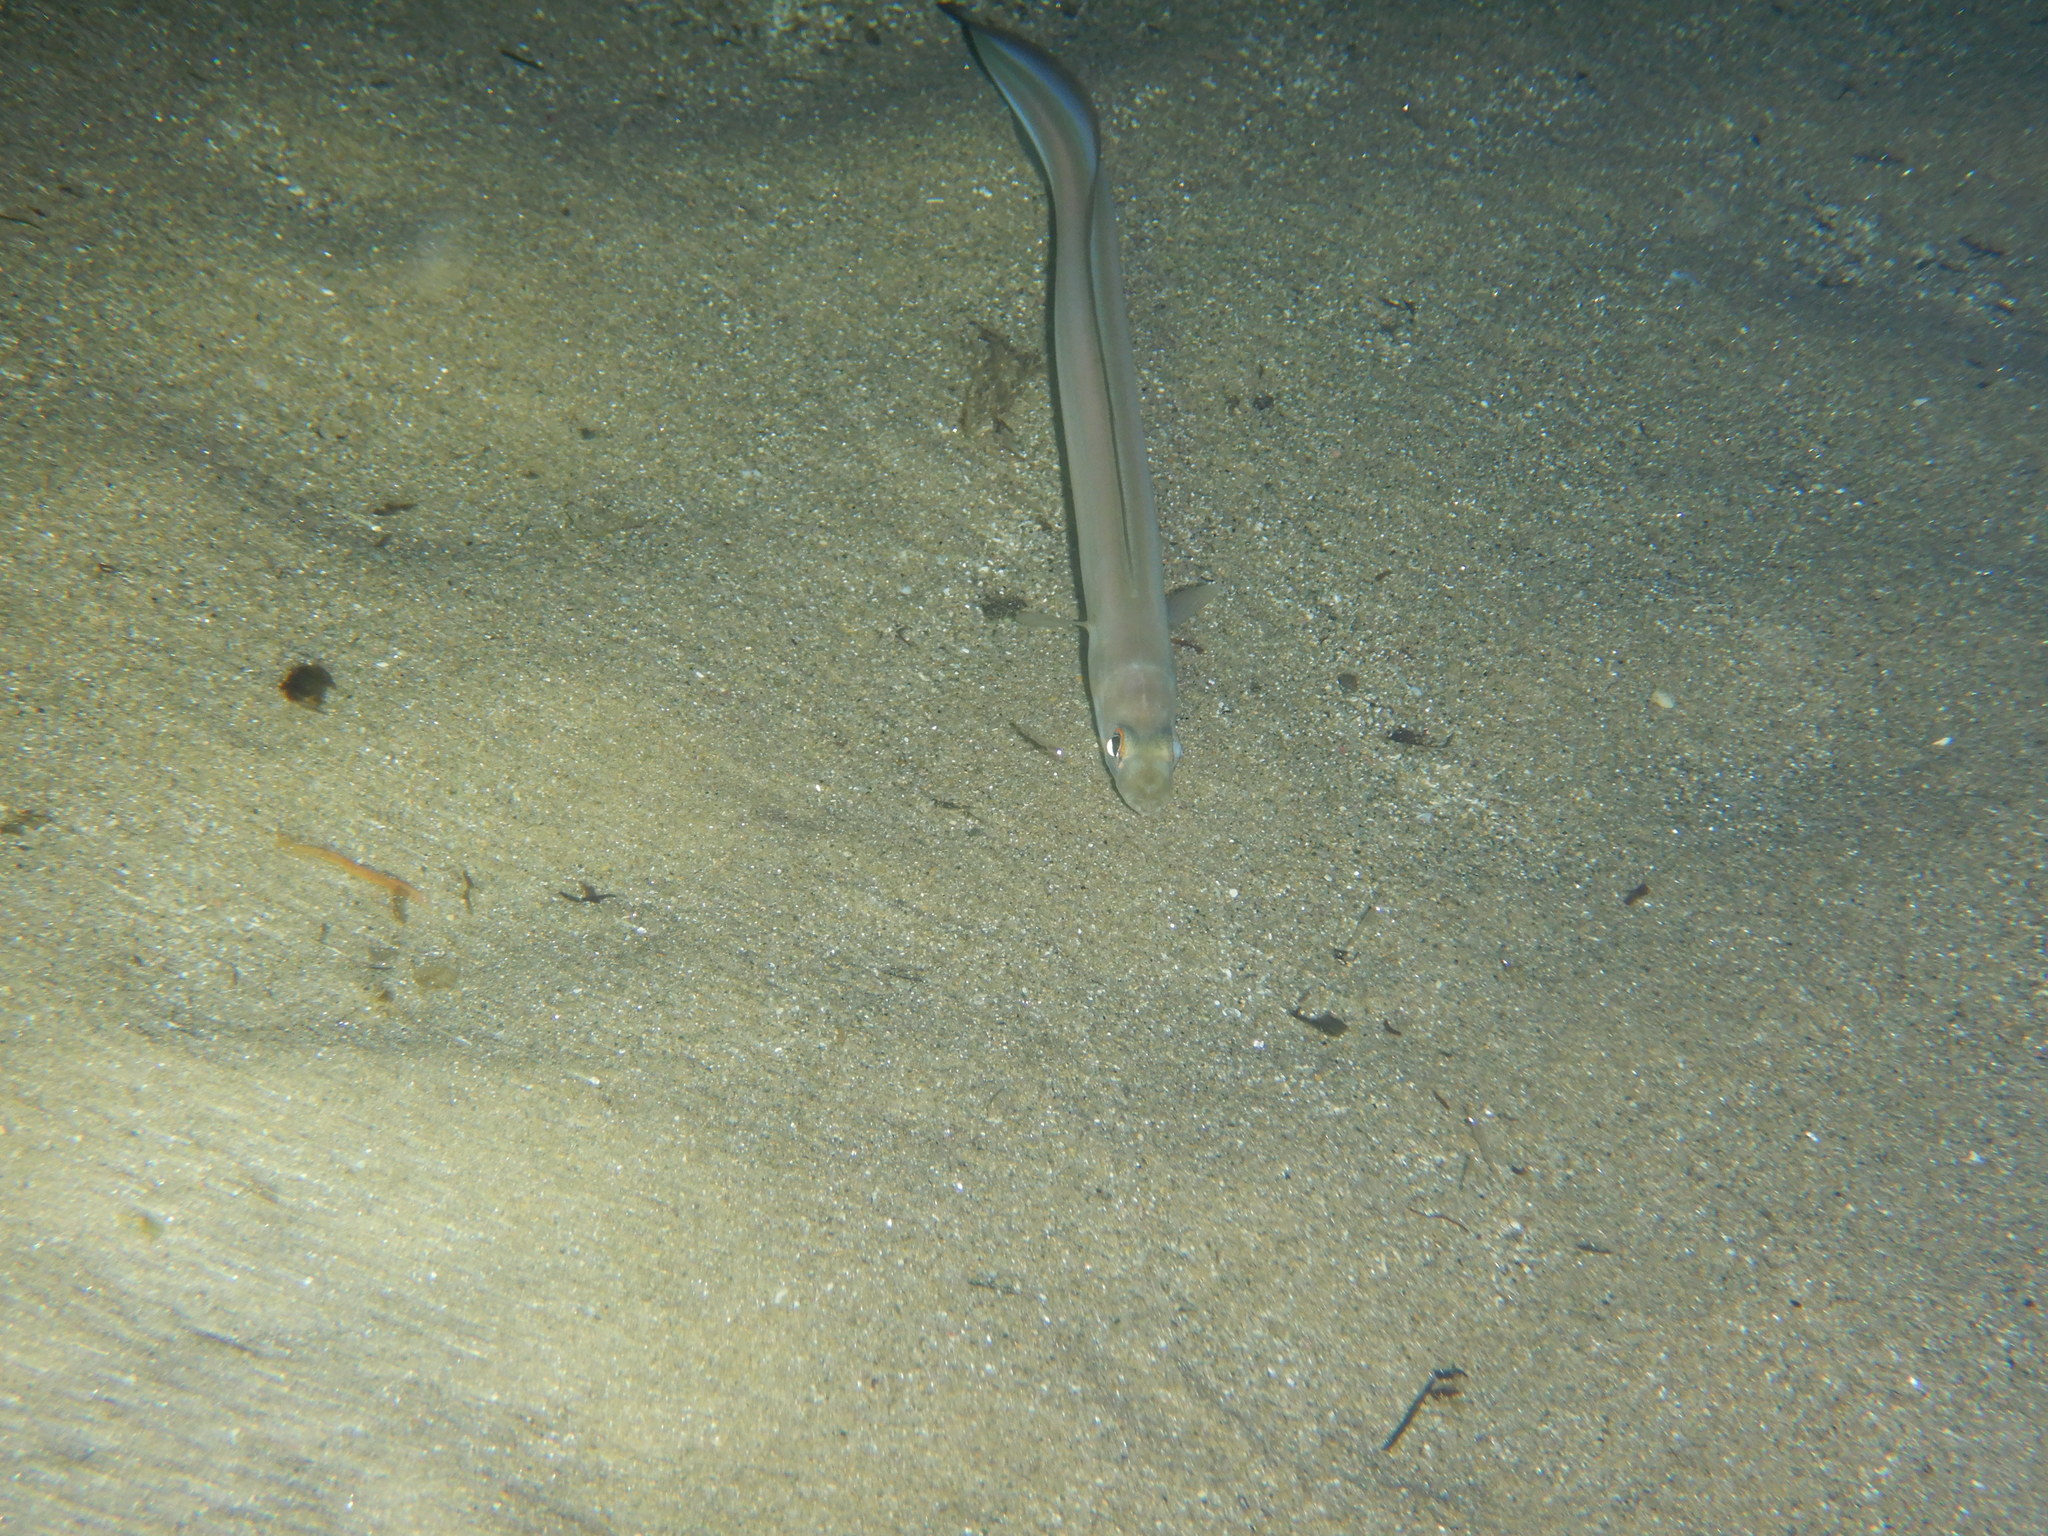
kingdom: Animalia
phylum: Chordata
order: Anguilliformes
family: Congridae
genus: Ariosoma
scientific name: Ariosoma balearicum
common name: Bandtooth conger
